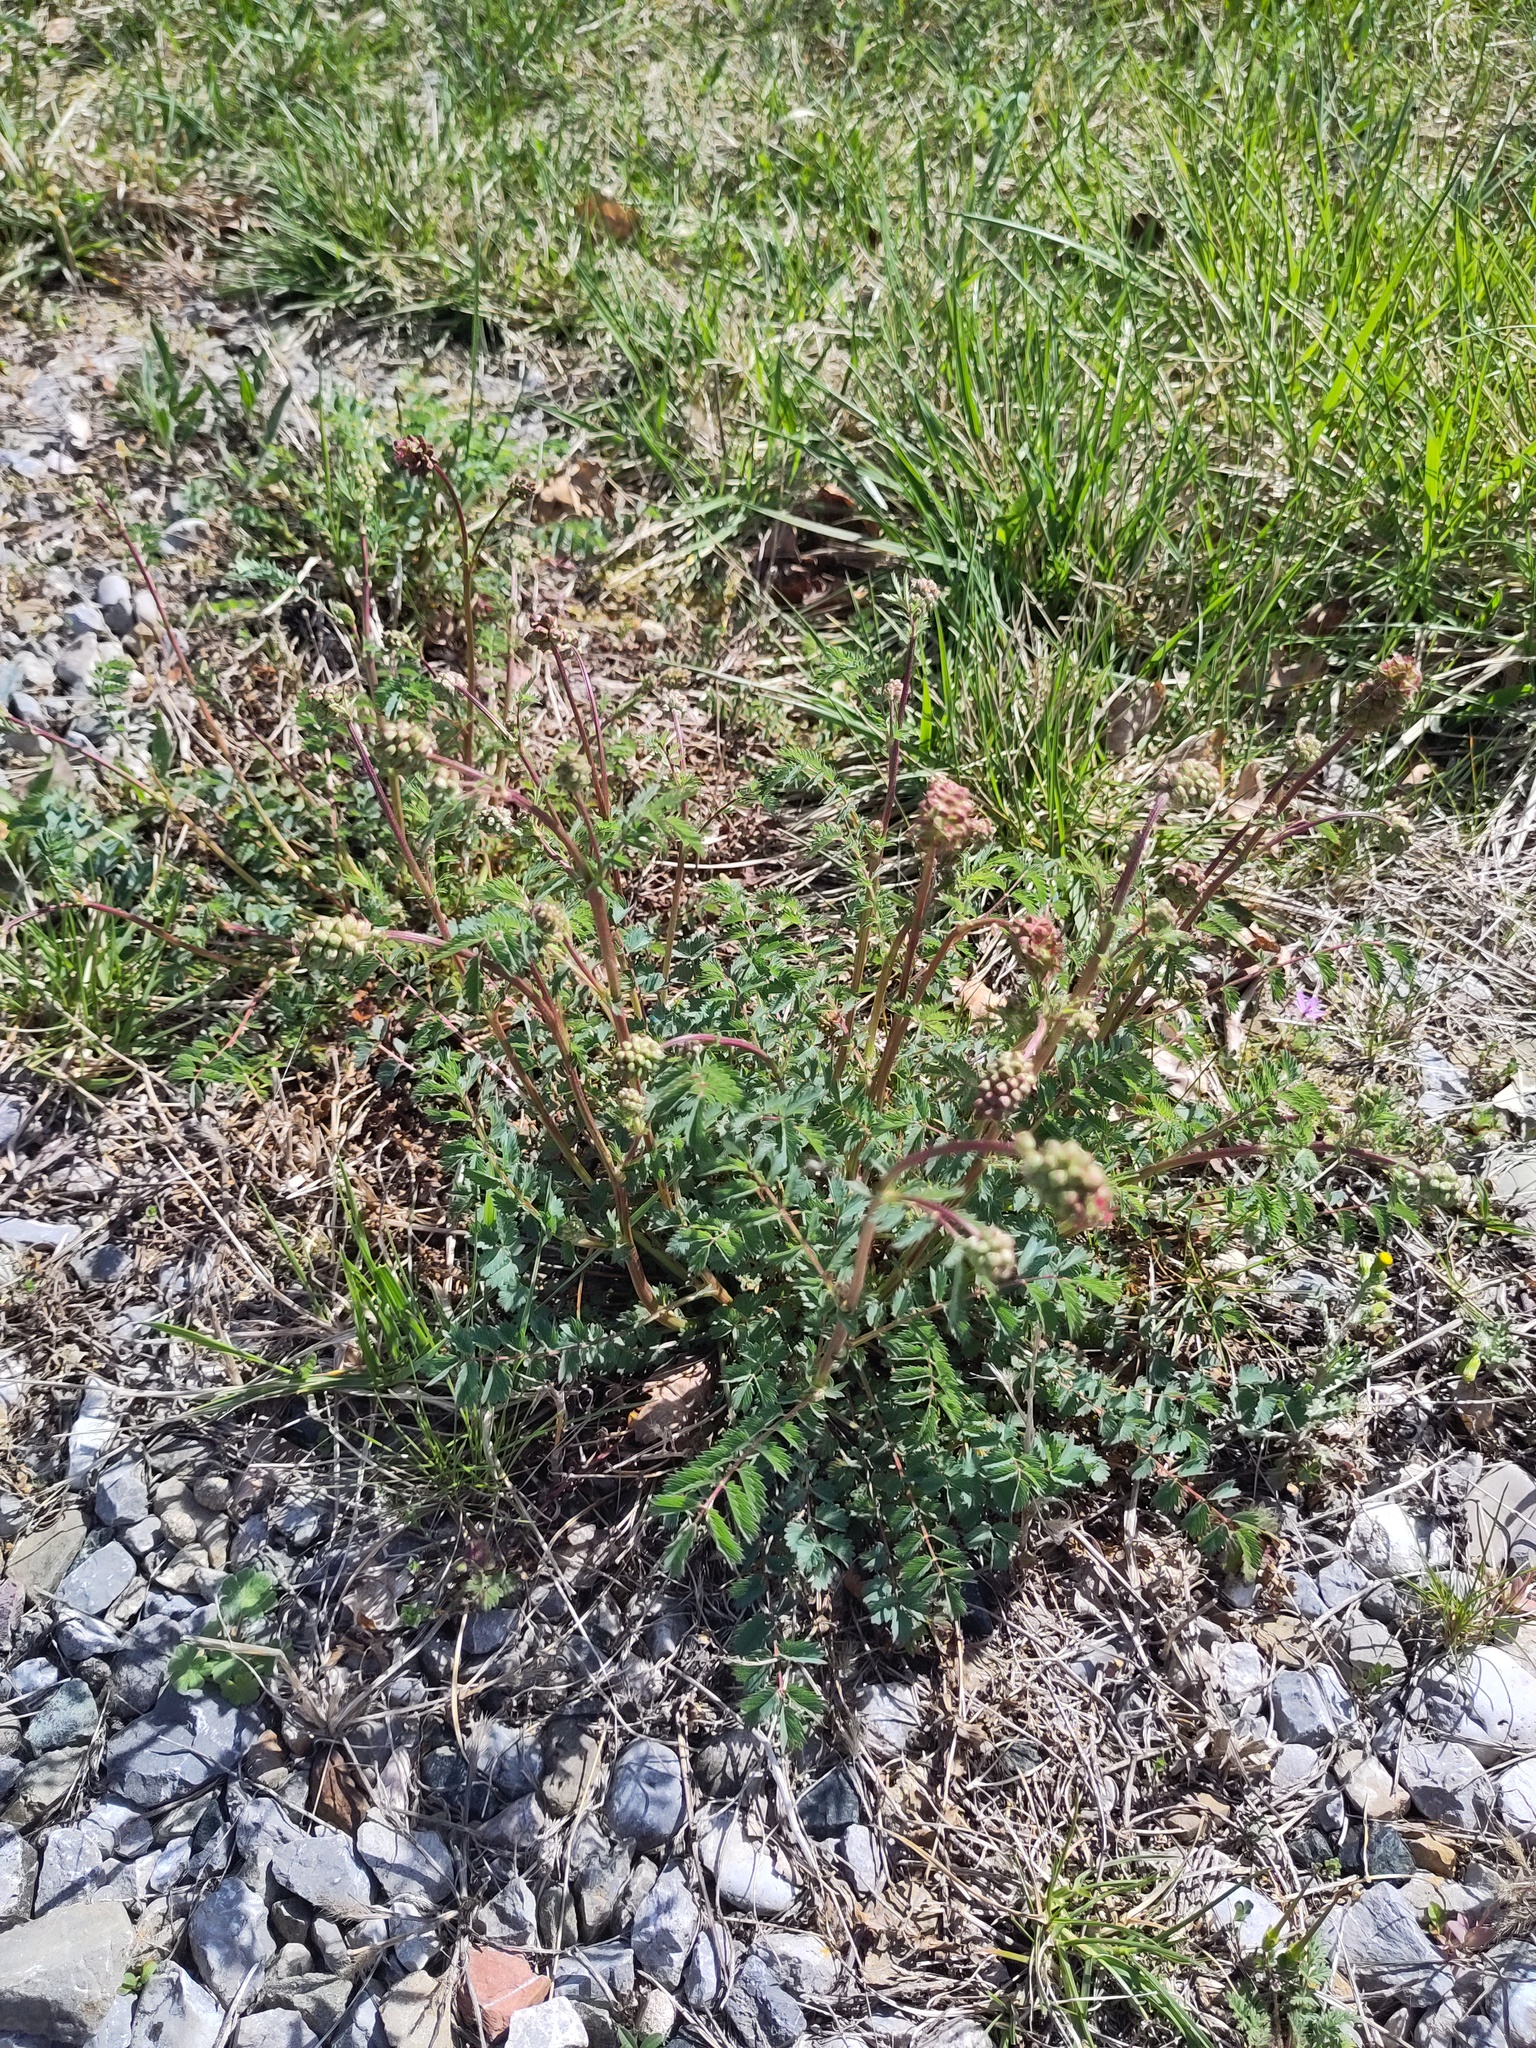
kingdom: Plantae
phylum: Tracheophyta
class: Magnoliopsida
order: Rosales
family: Rosaceae
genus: Poterium
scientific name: Poterium sanguisorba
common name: Salad burnet
